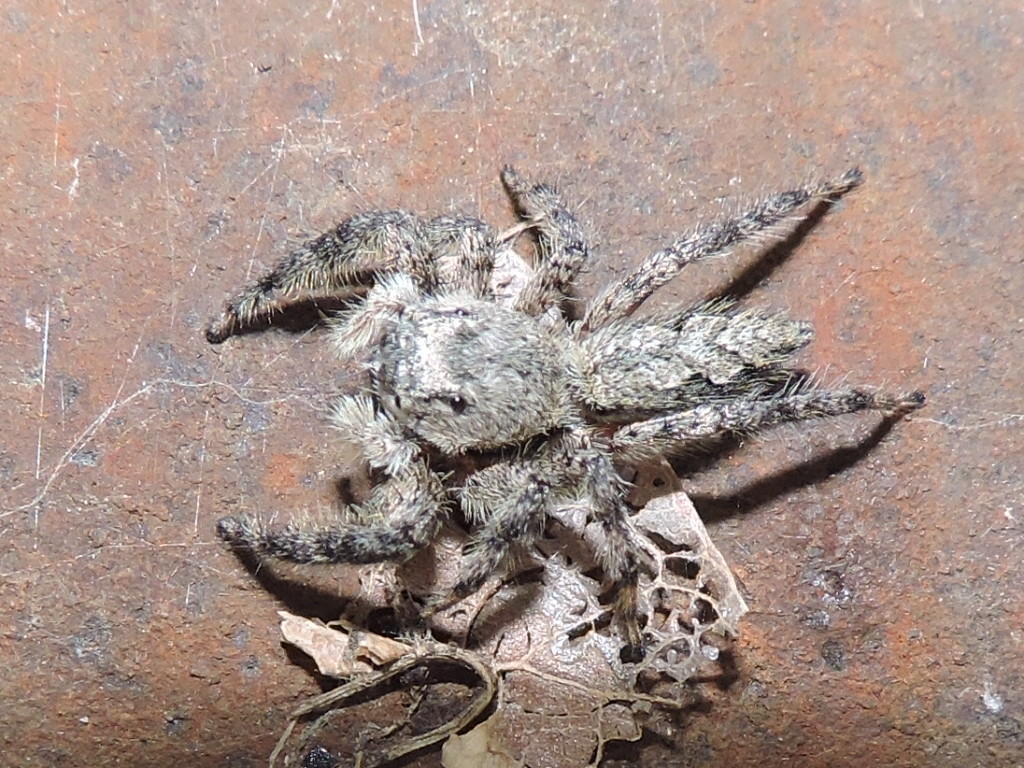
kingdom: Animalia
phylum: Arthropoda
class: Arachnida
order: Araneae
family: Salticidae
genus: Platycryptus
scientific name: Platycryptus undatus
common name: Tan jumping spider
